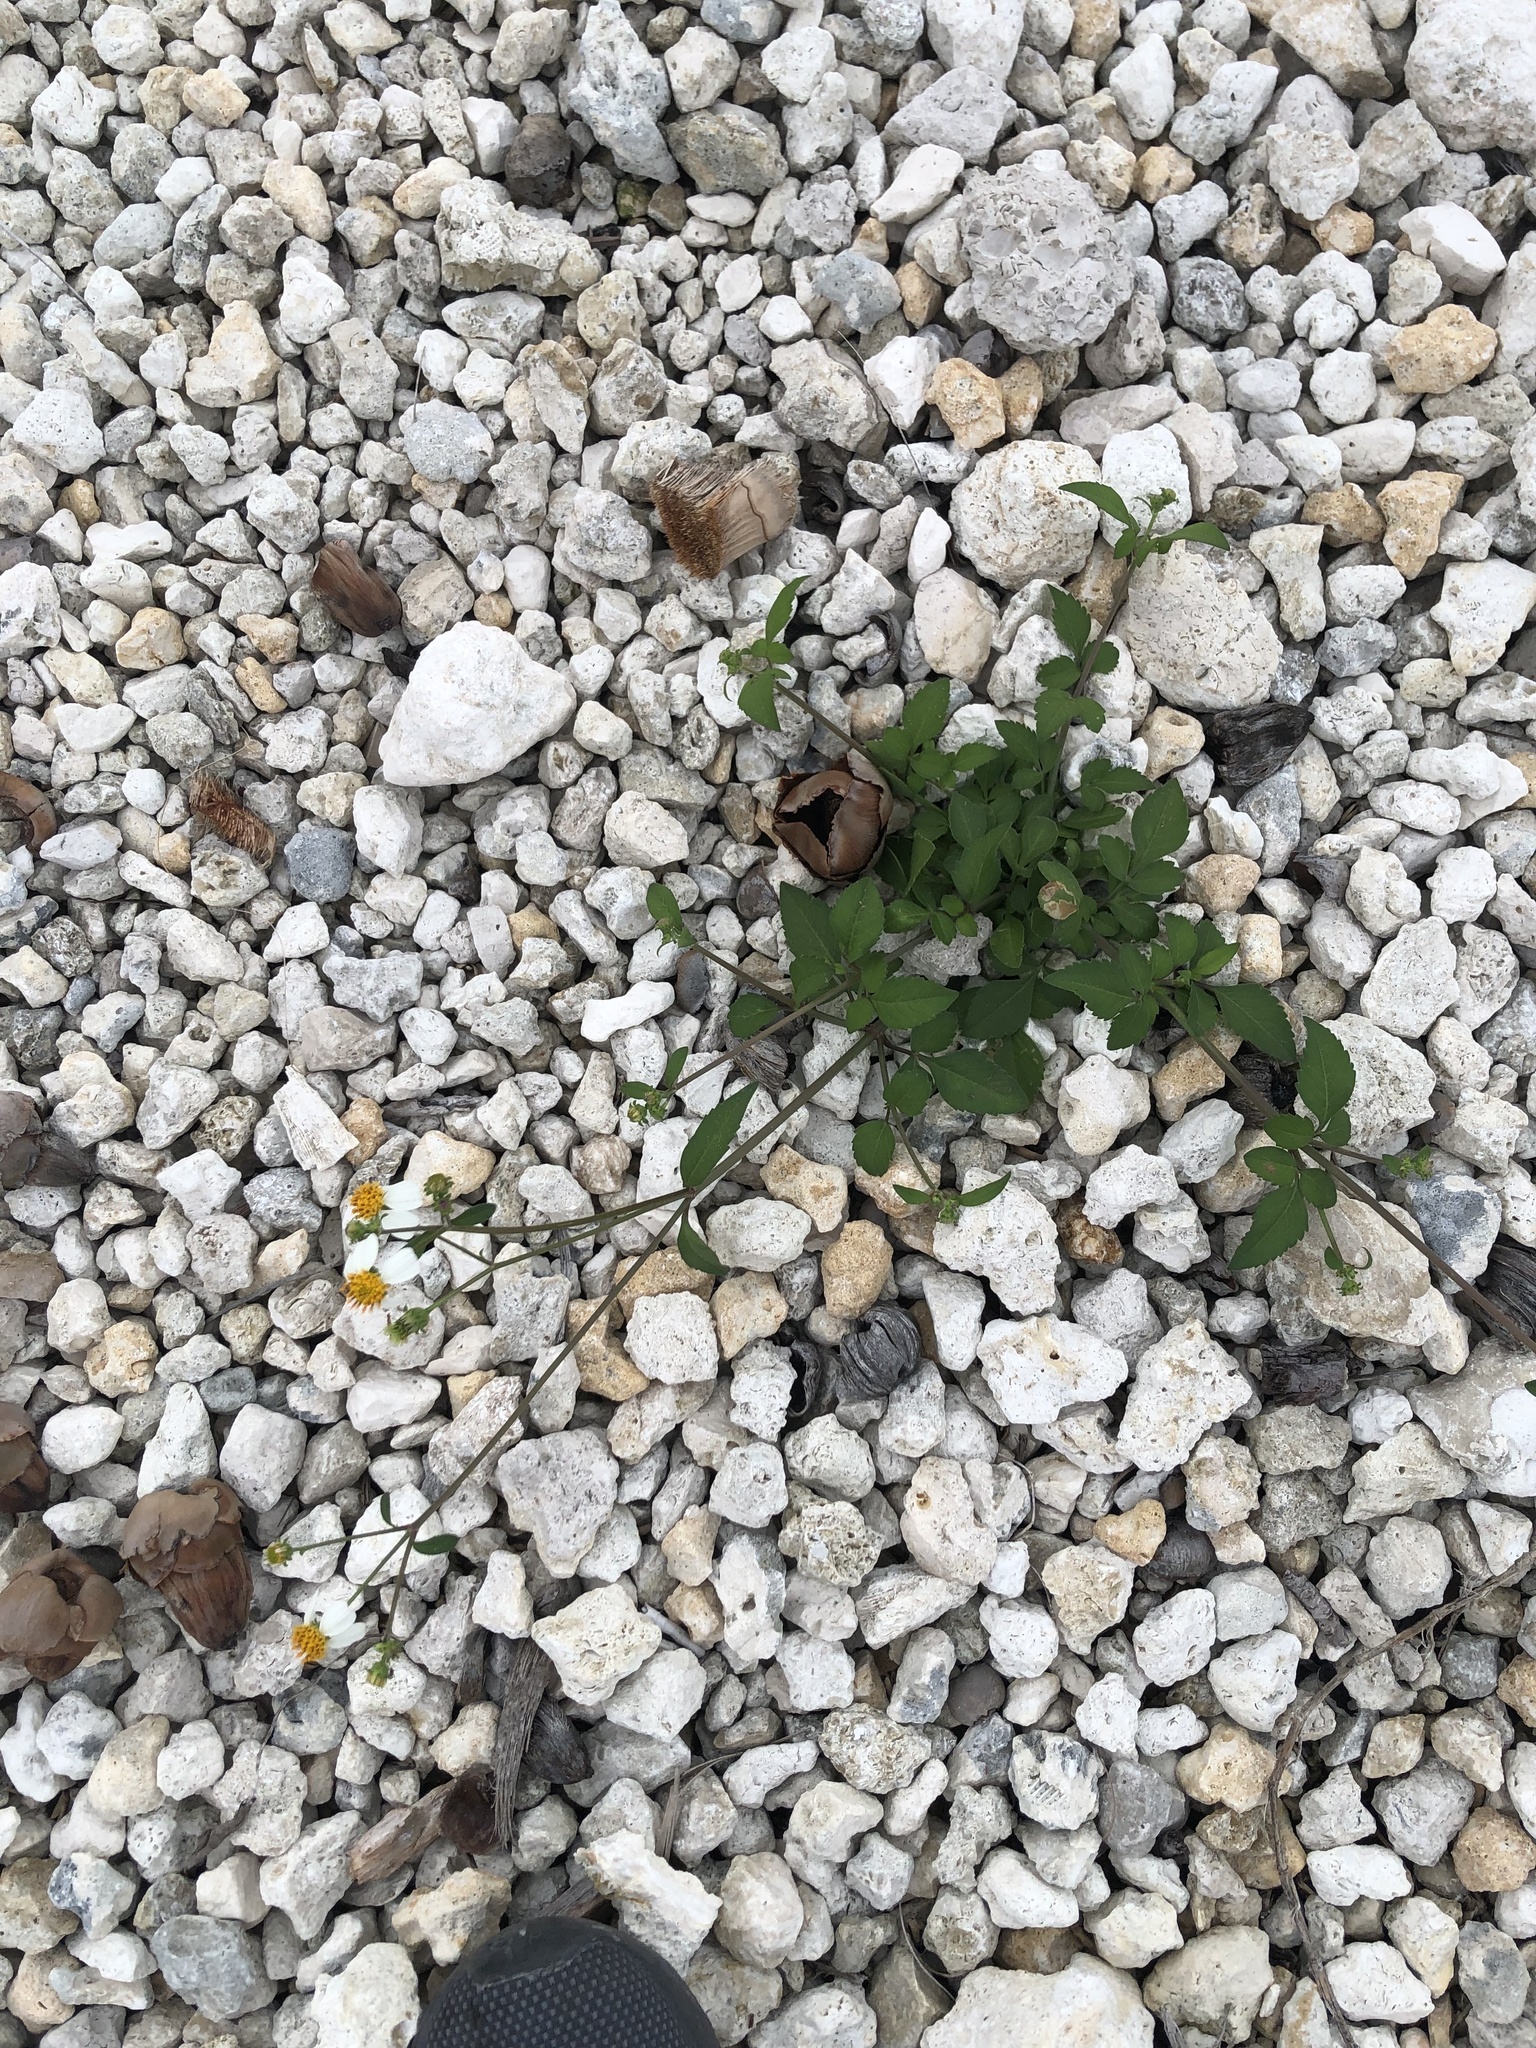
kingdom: Plantae
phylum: Tracheophyta
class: Magnoliopsida
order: Asterales
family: Asteraceae
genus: Bidens
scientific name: Bidens alba
